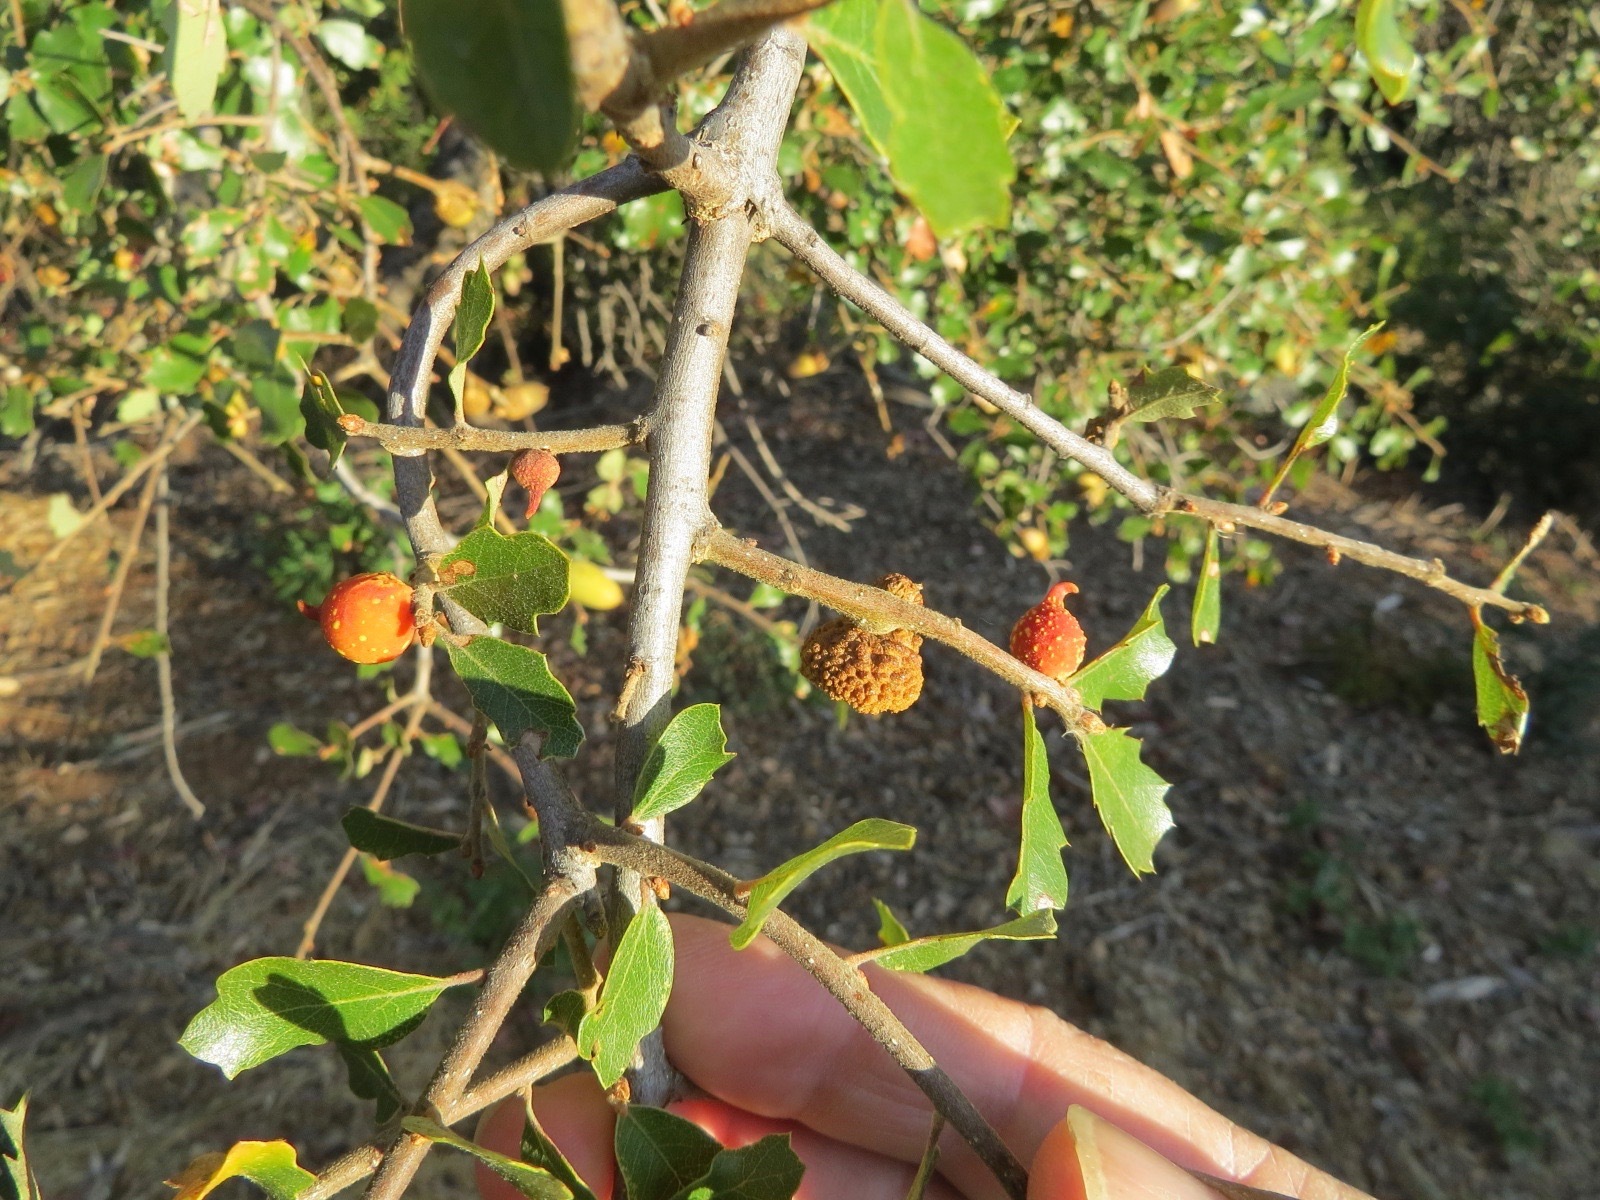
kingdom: Animalia
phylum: Arthropoda
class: Insecta
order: Hymenoptera
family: Cynipidae
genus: Burnettweldia
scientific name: Burnettweldia
